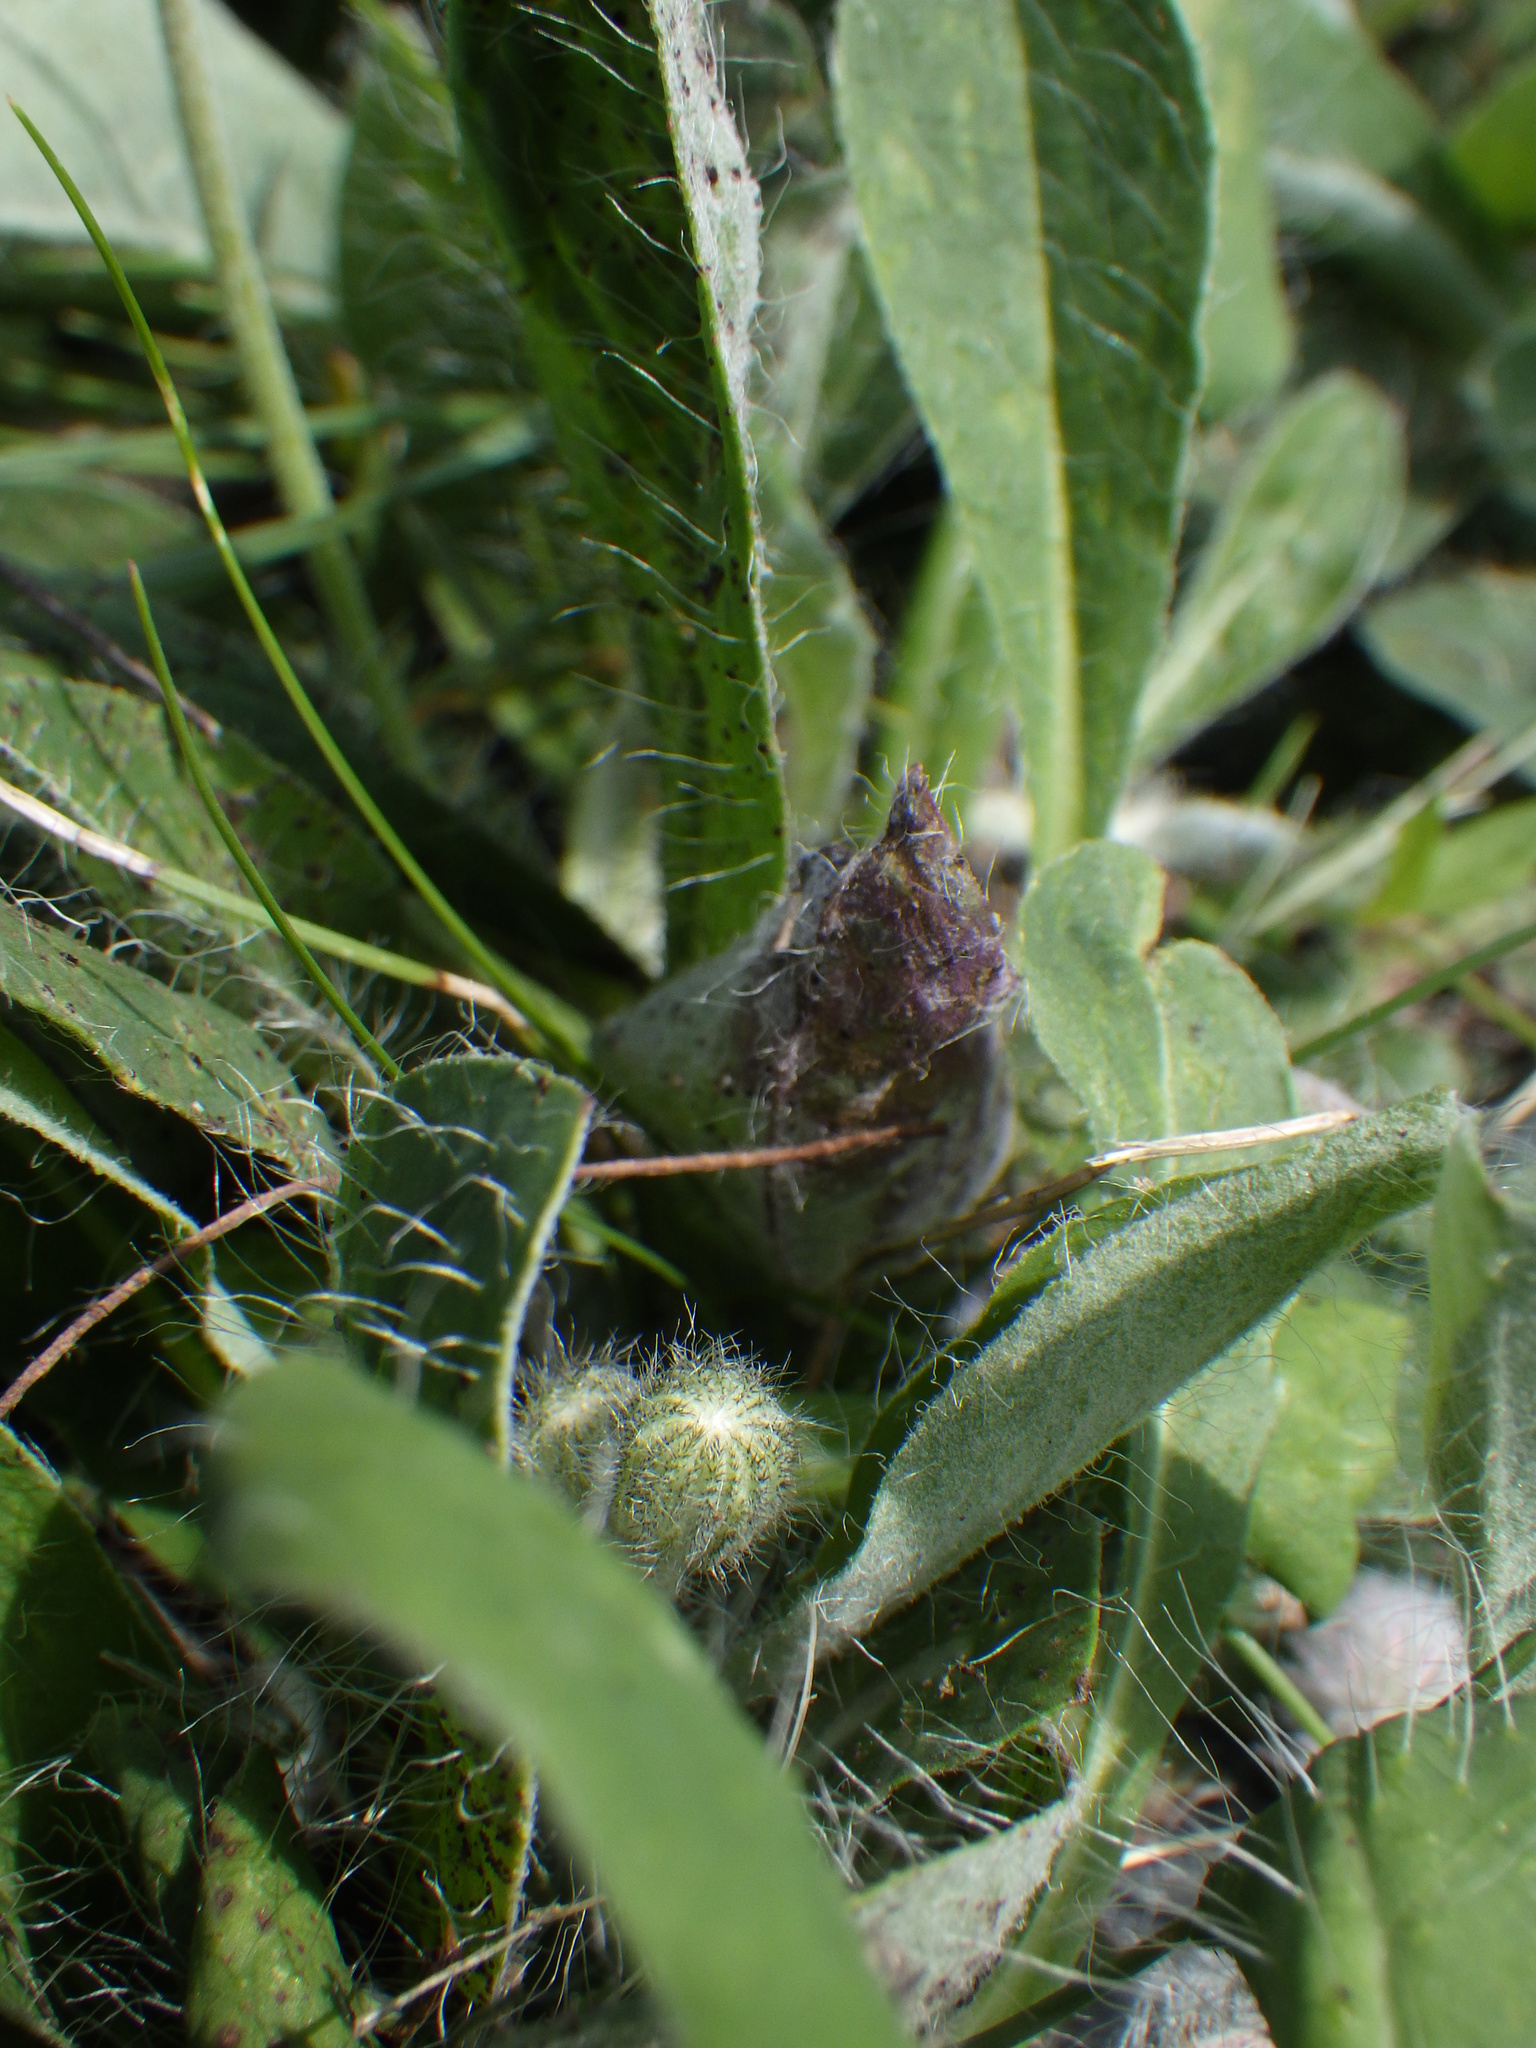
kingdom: Plantae
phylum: Tracheophyta
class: Magnoliopsida
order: Asterales
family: Asteraceae
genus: Pilosella
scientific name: Pilosella officinarum
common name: Mouse-ear hawkweed
